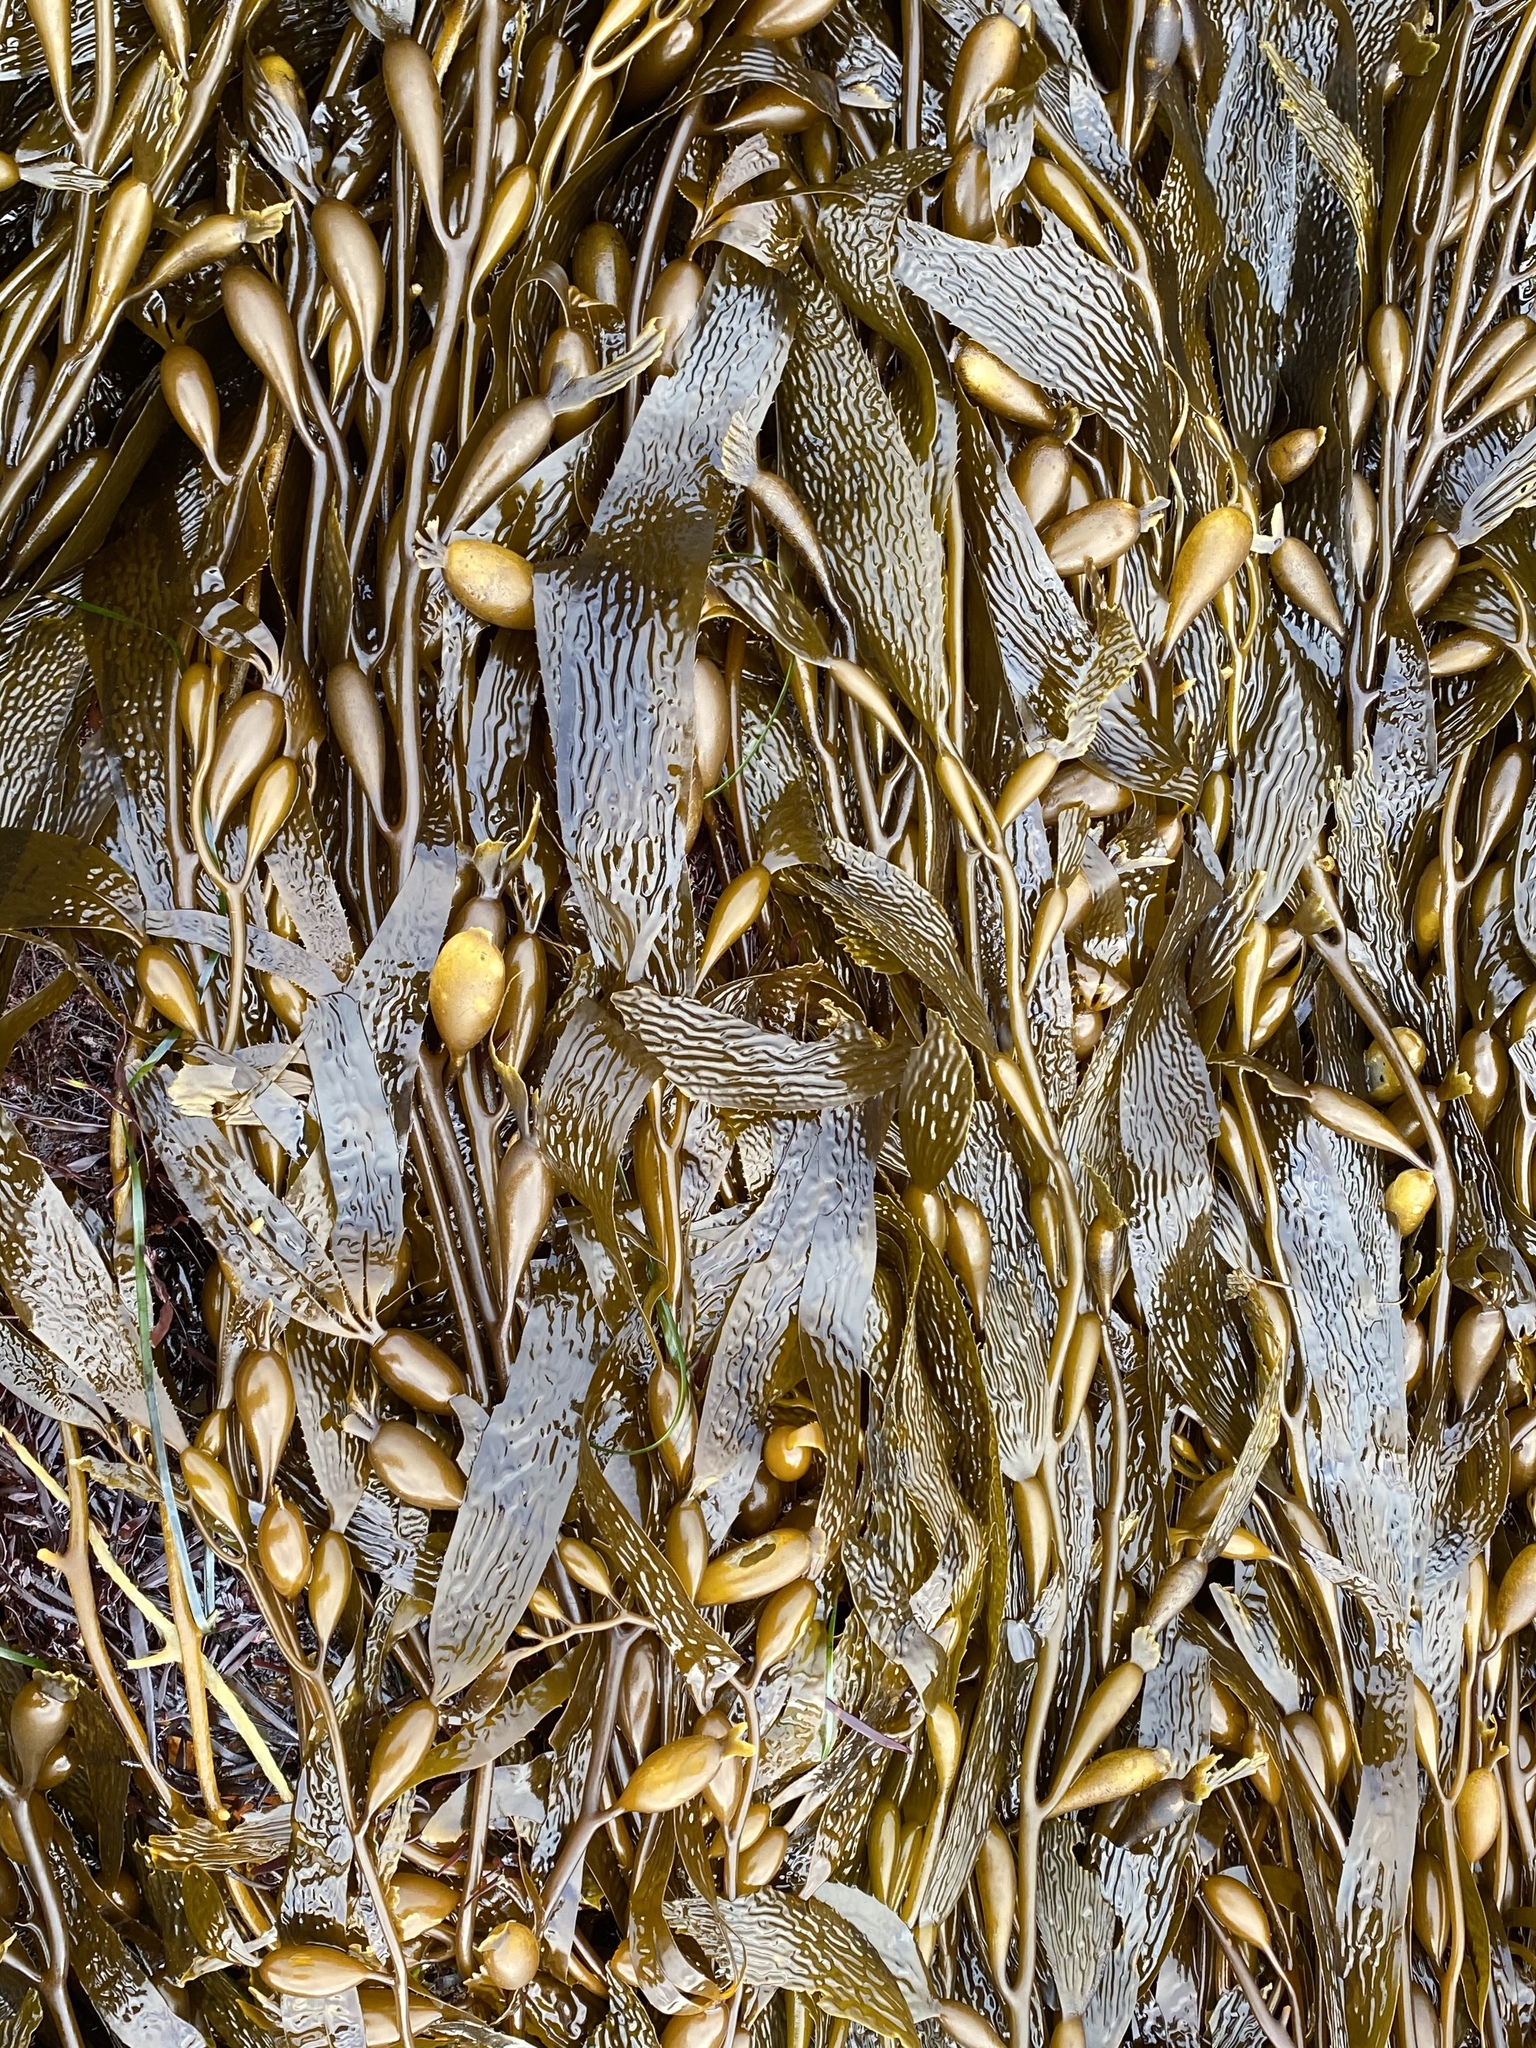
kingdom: Chromista
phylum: Ochrophyta
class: Phaeophyceae
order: Laminariales
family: Laminariaceae
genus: Macrocystis
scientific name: Macrocystis pyrifera
